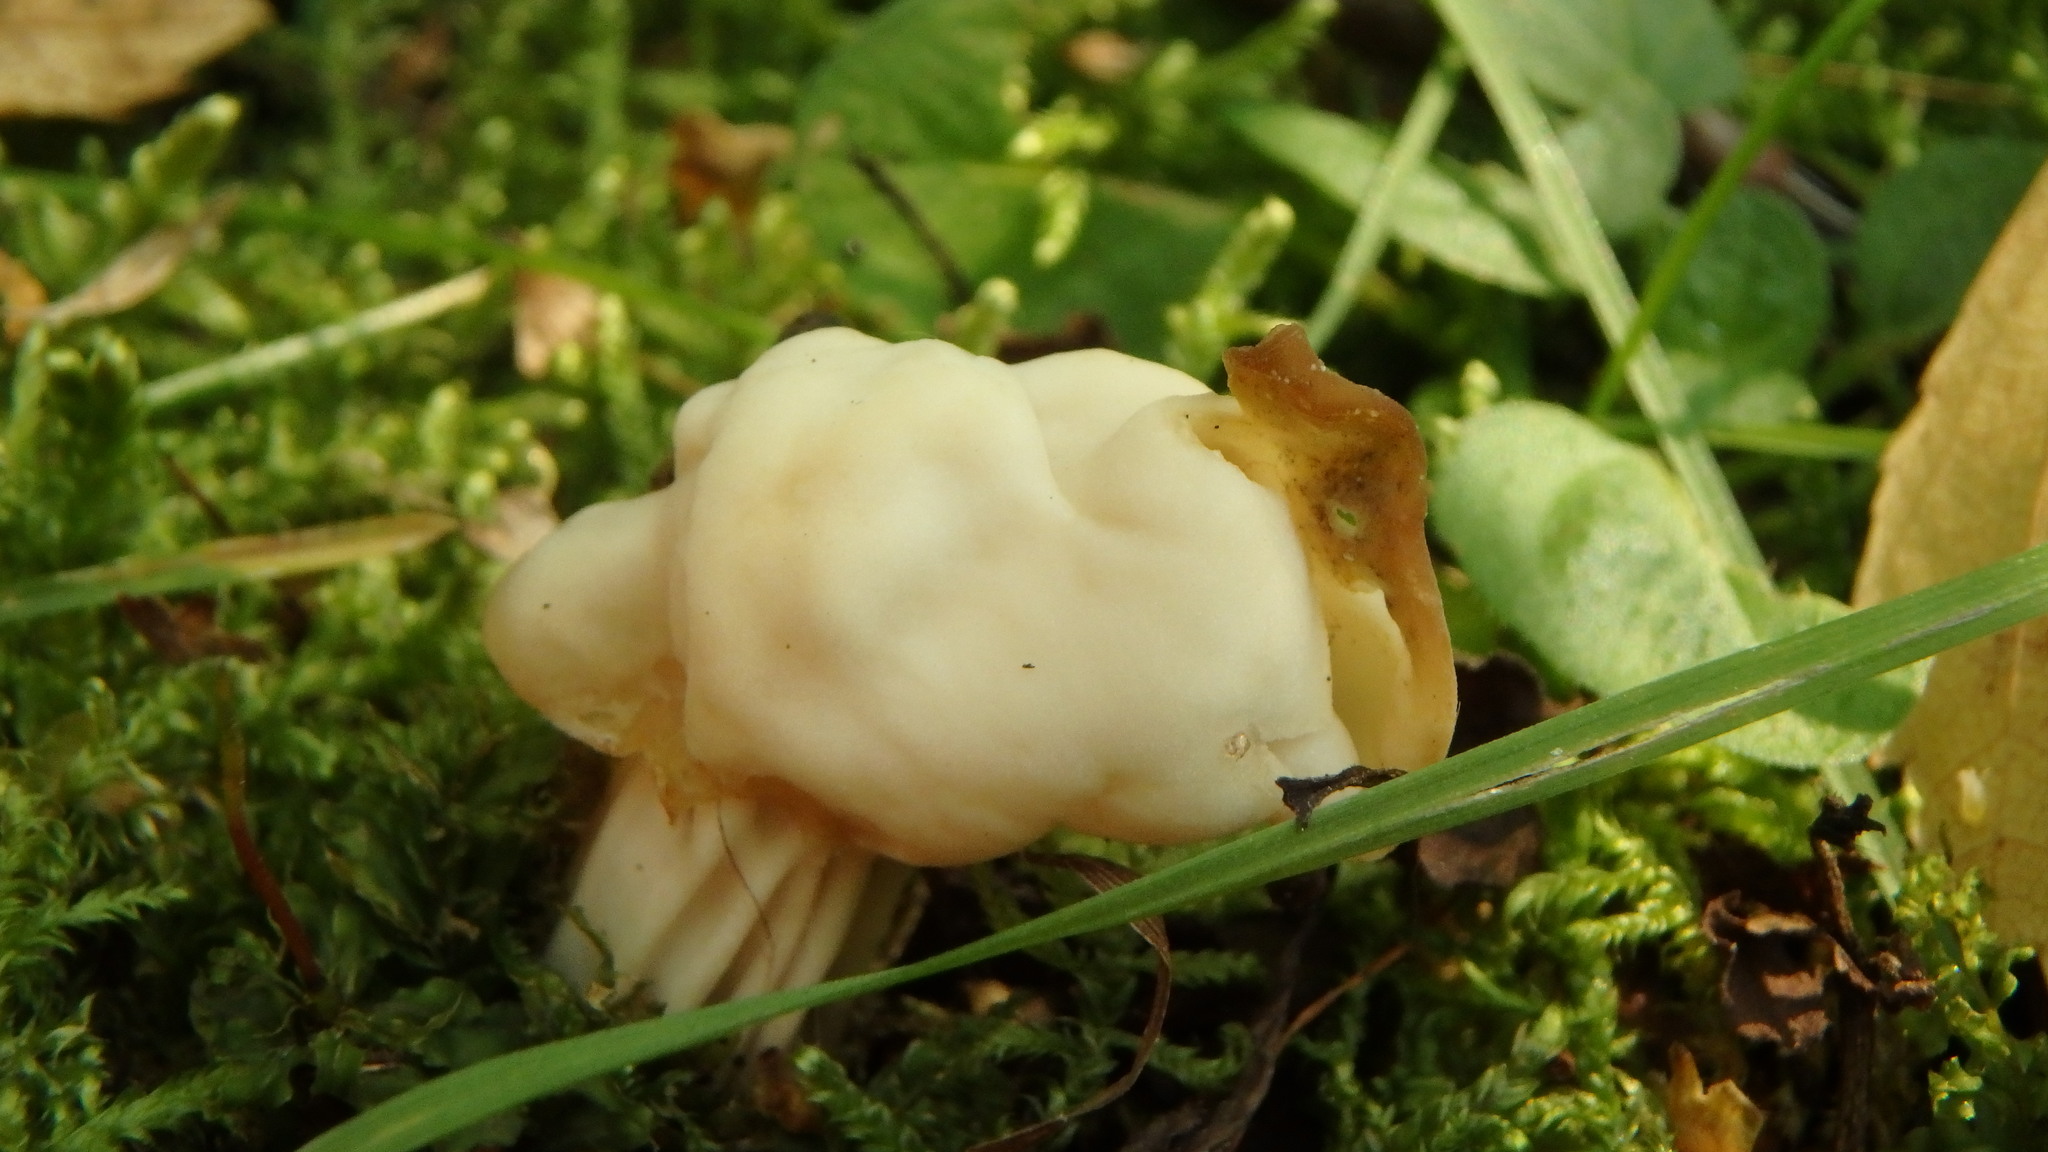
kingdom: Fungi
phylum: Ascomycota
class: Pezizomycetes
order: Pezizales
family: Helvellaceae
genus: Helvella
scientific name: Helvella crispa
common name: White saddle
